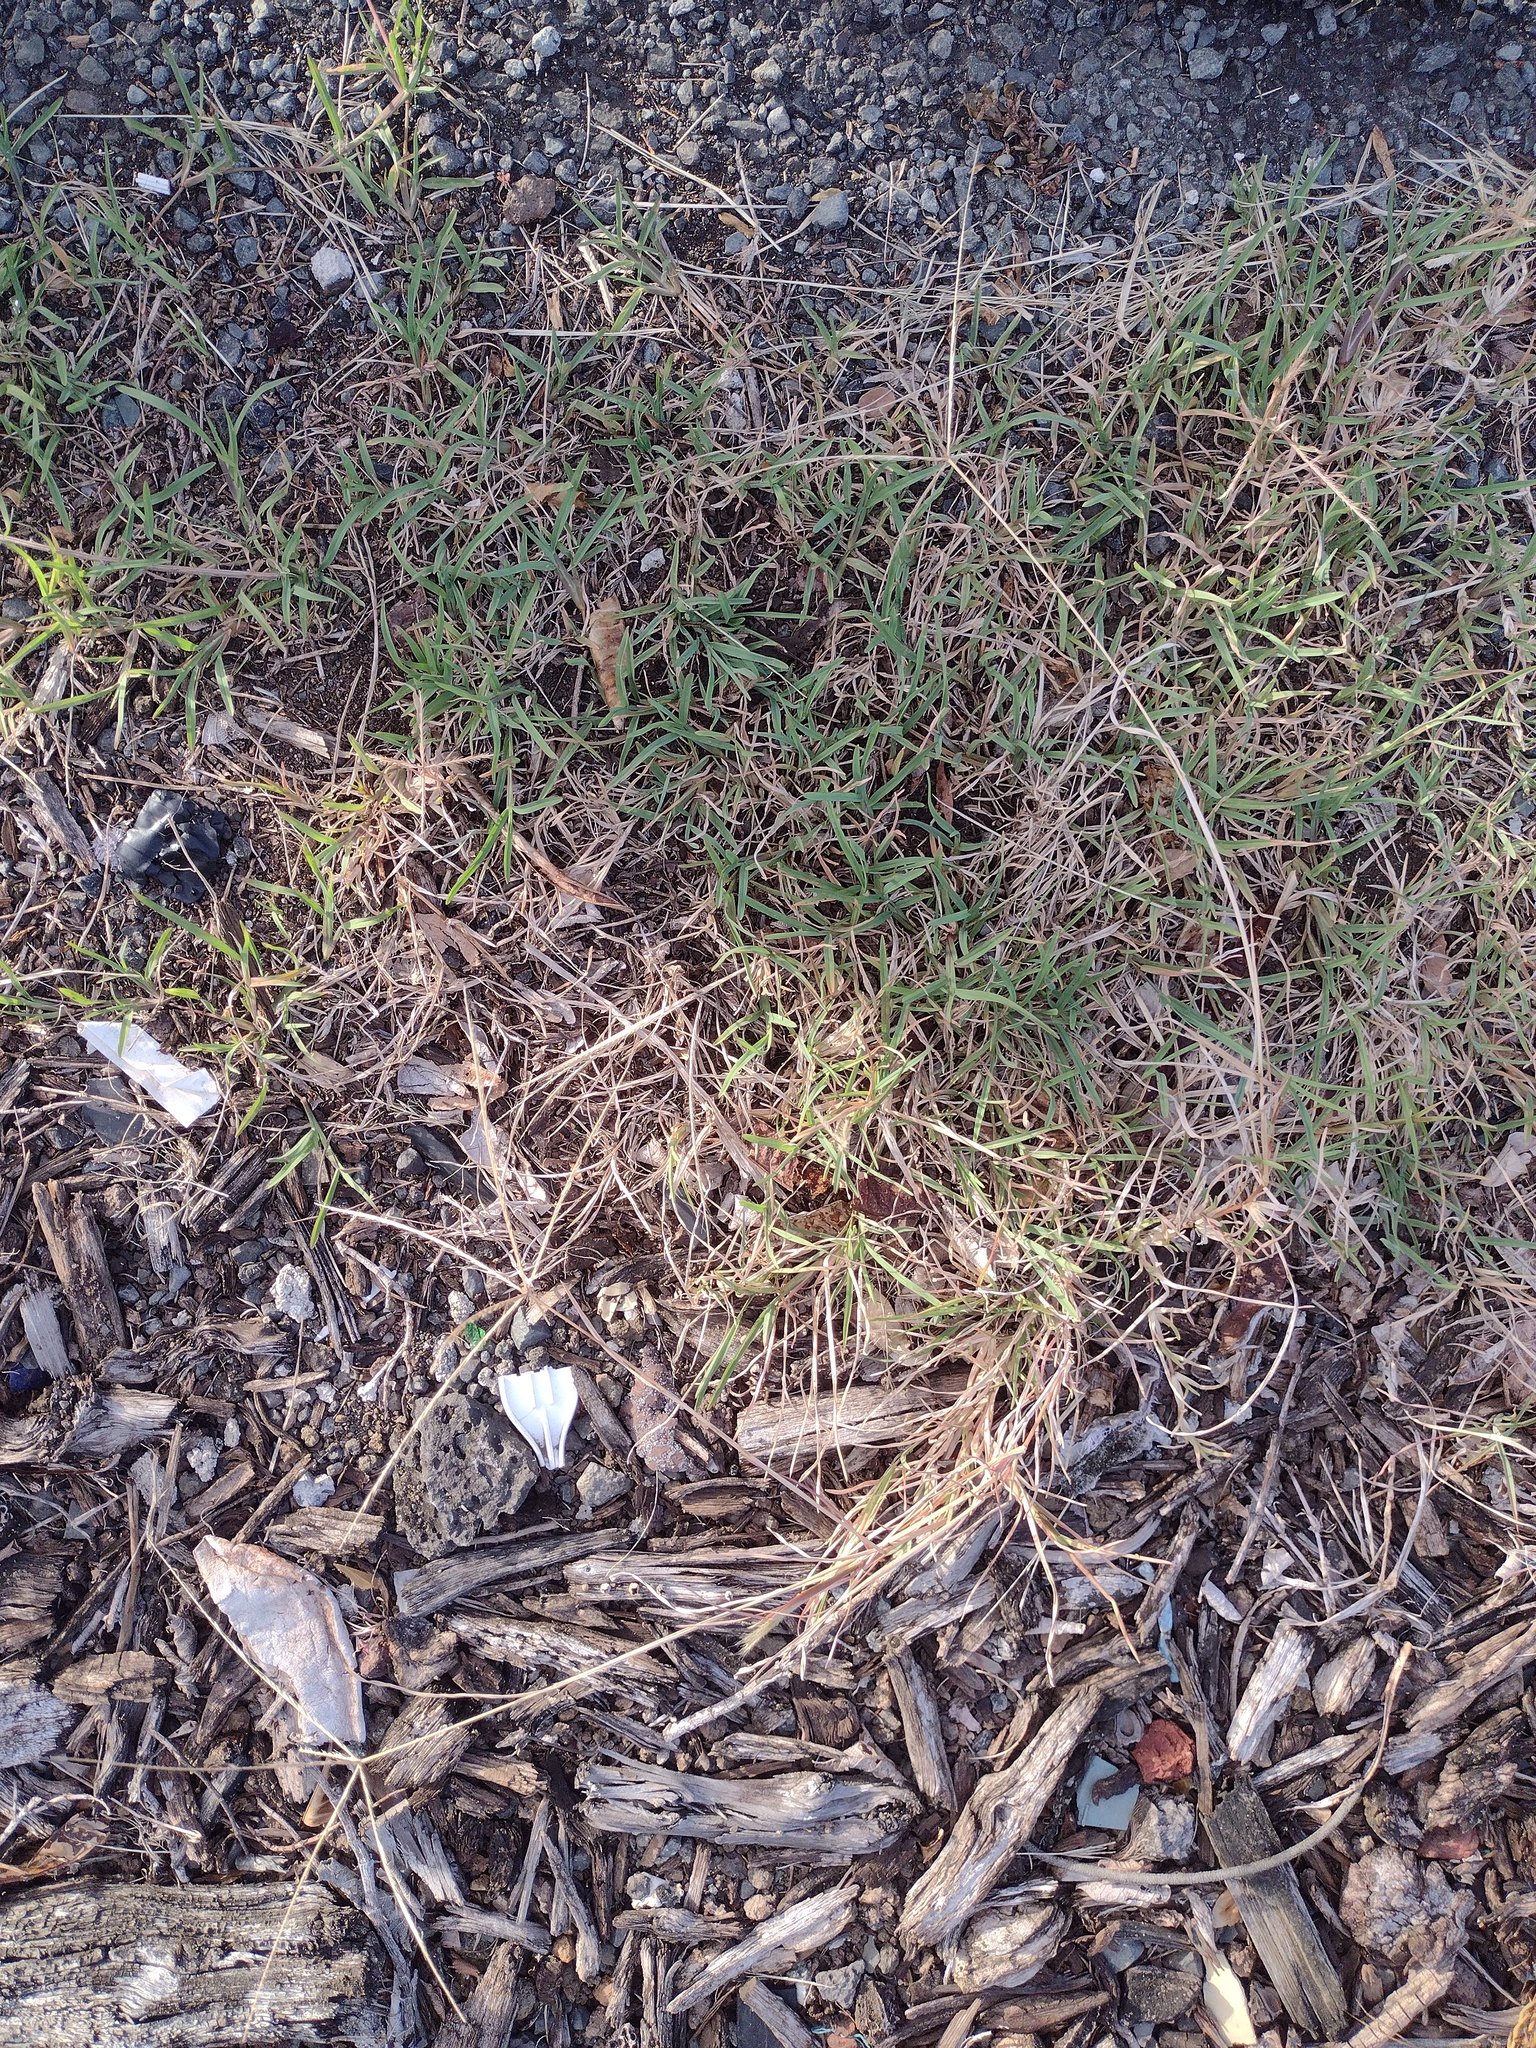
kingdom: Plantae
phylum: Tracheophyta
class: Liliopsida
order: Poales
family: Poaceae
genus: Cynodon
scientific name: Cynodon dactylon
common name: Bermuda grass
